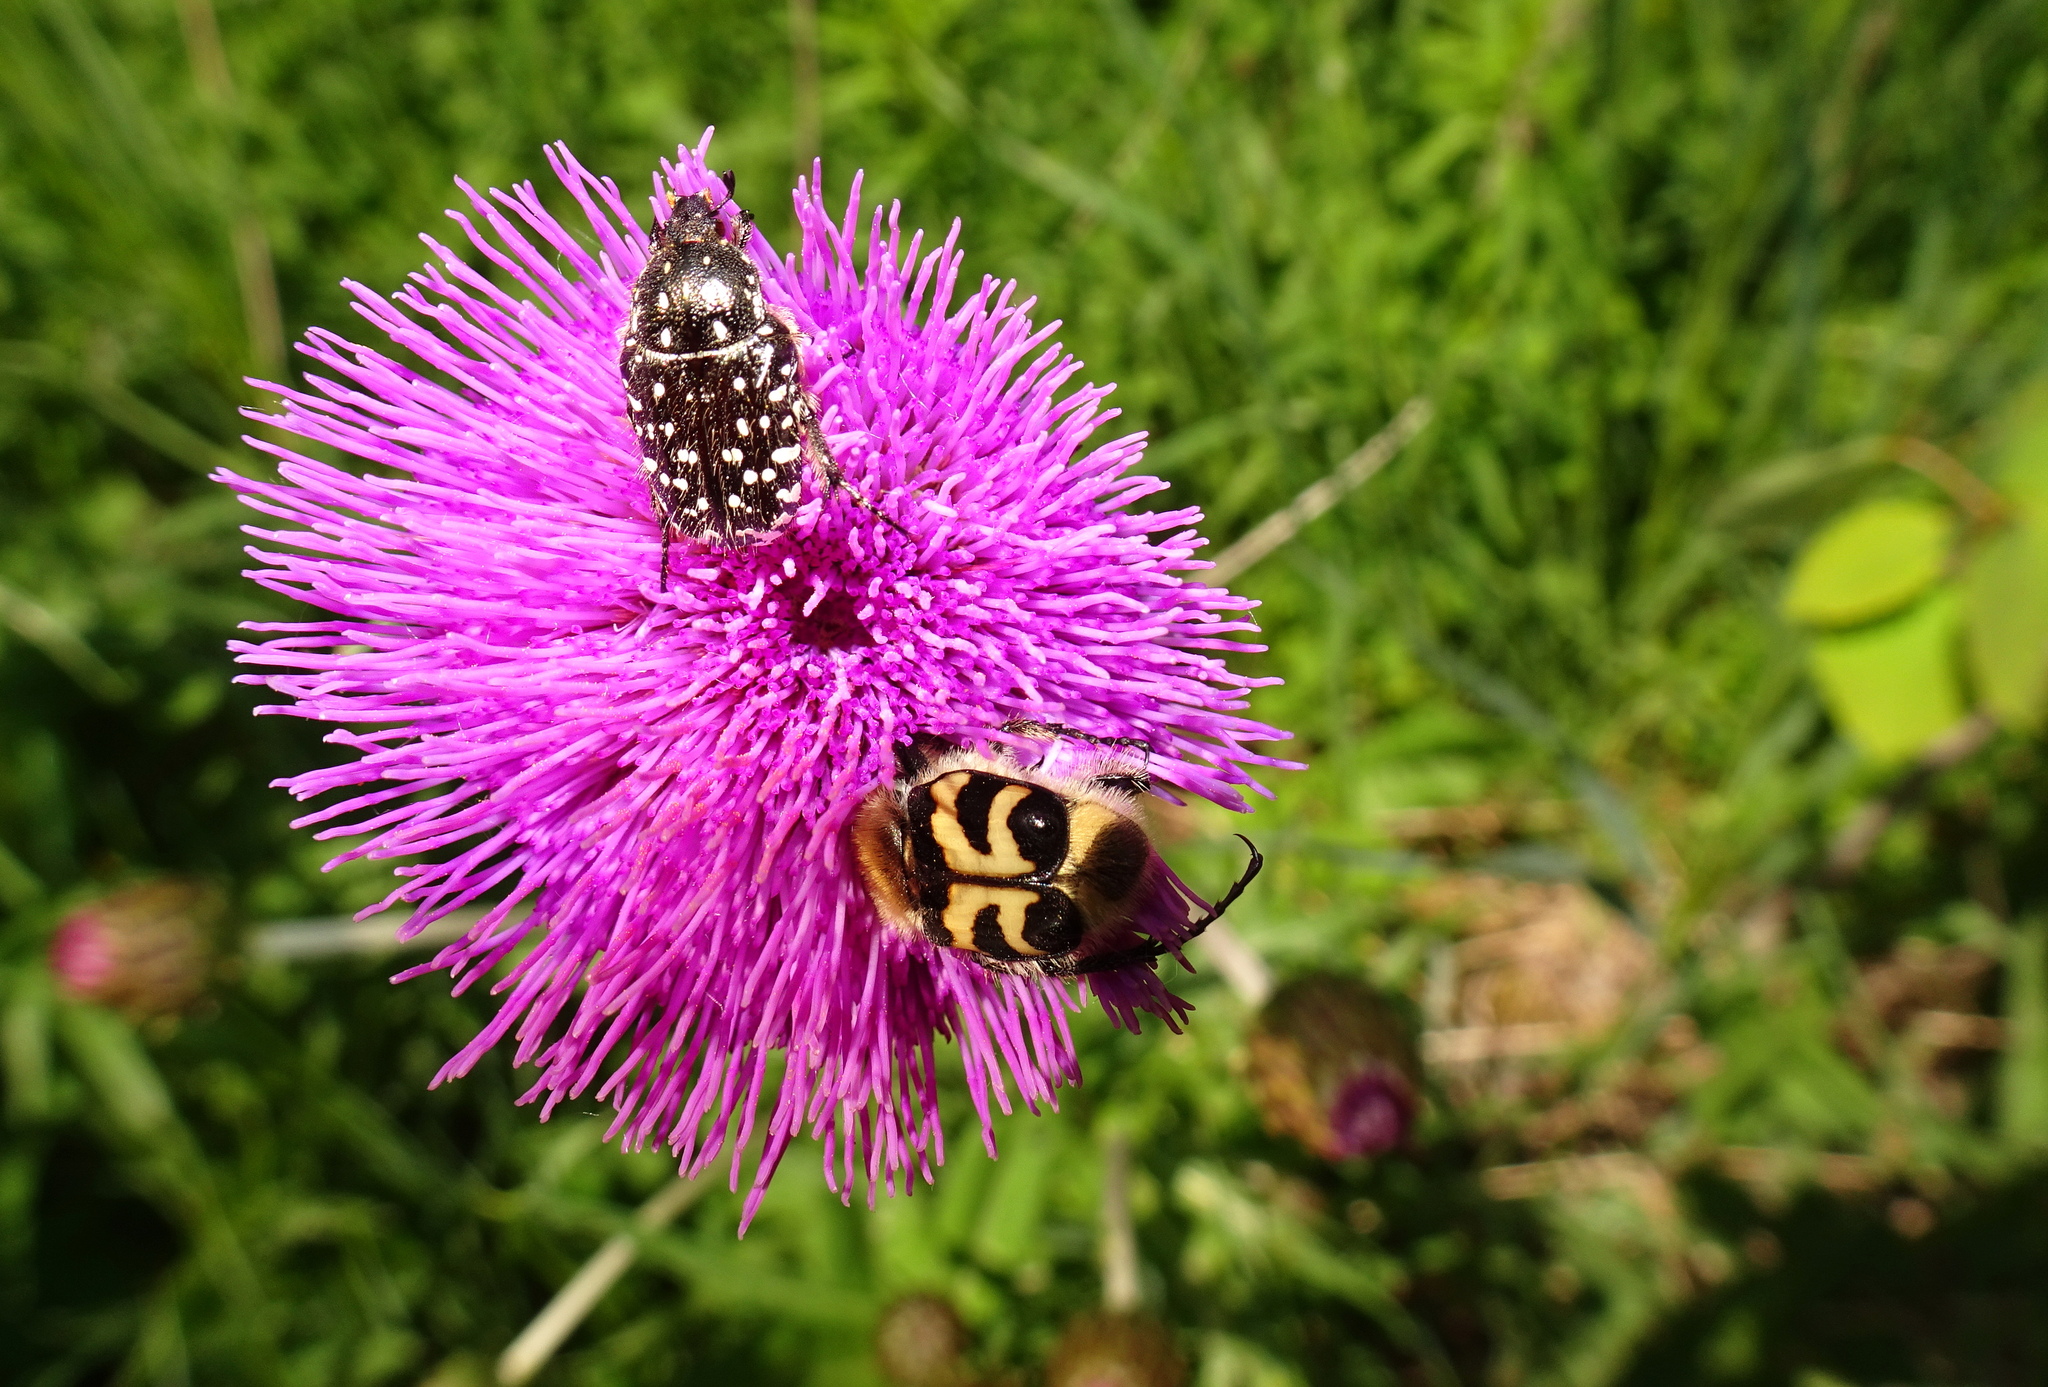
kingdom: Animalia
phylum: Arthropoda
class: Insecta
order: Coleoptera
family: Scarabaeidae
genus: Oxythyrea
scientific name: Oxythyrea funesta
